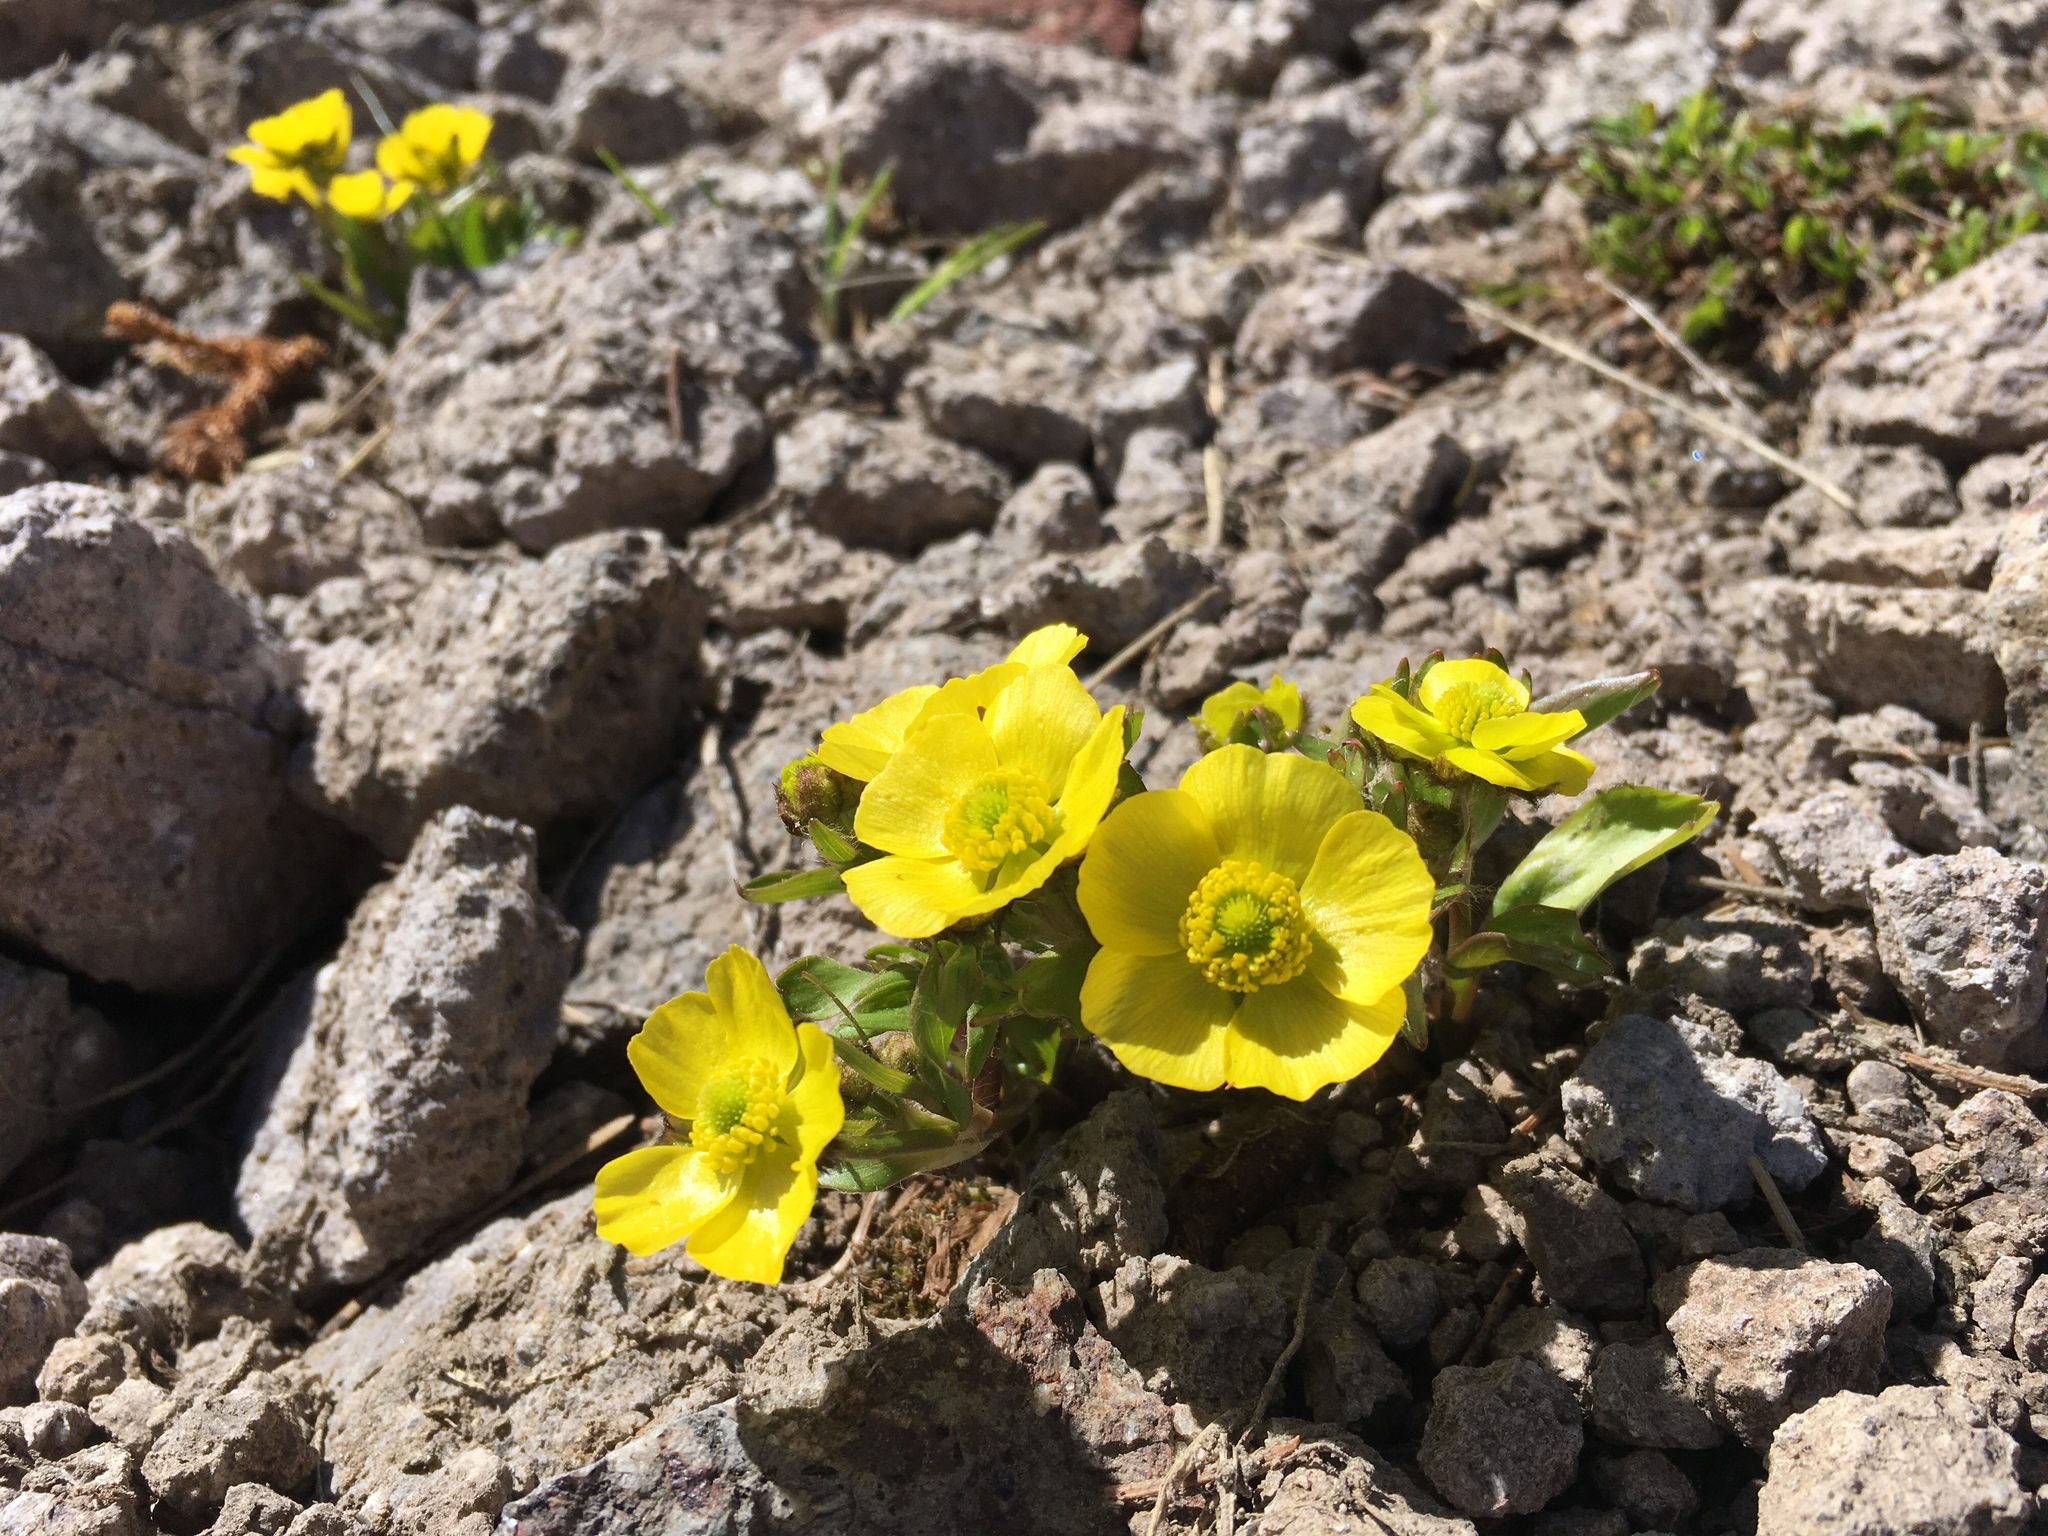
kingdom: Plantae
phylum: Tracheophyta
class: Magnoliopsida
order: Ranunculales
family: Ranunculaceae
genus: Ranunculus
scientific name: Ranunculus macauleyi
